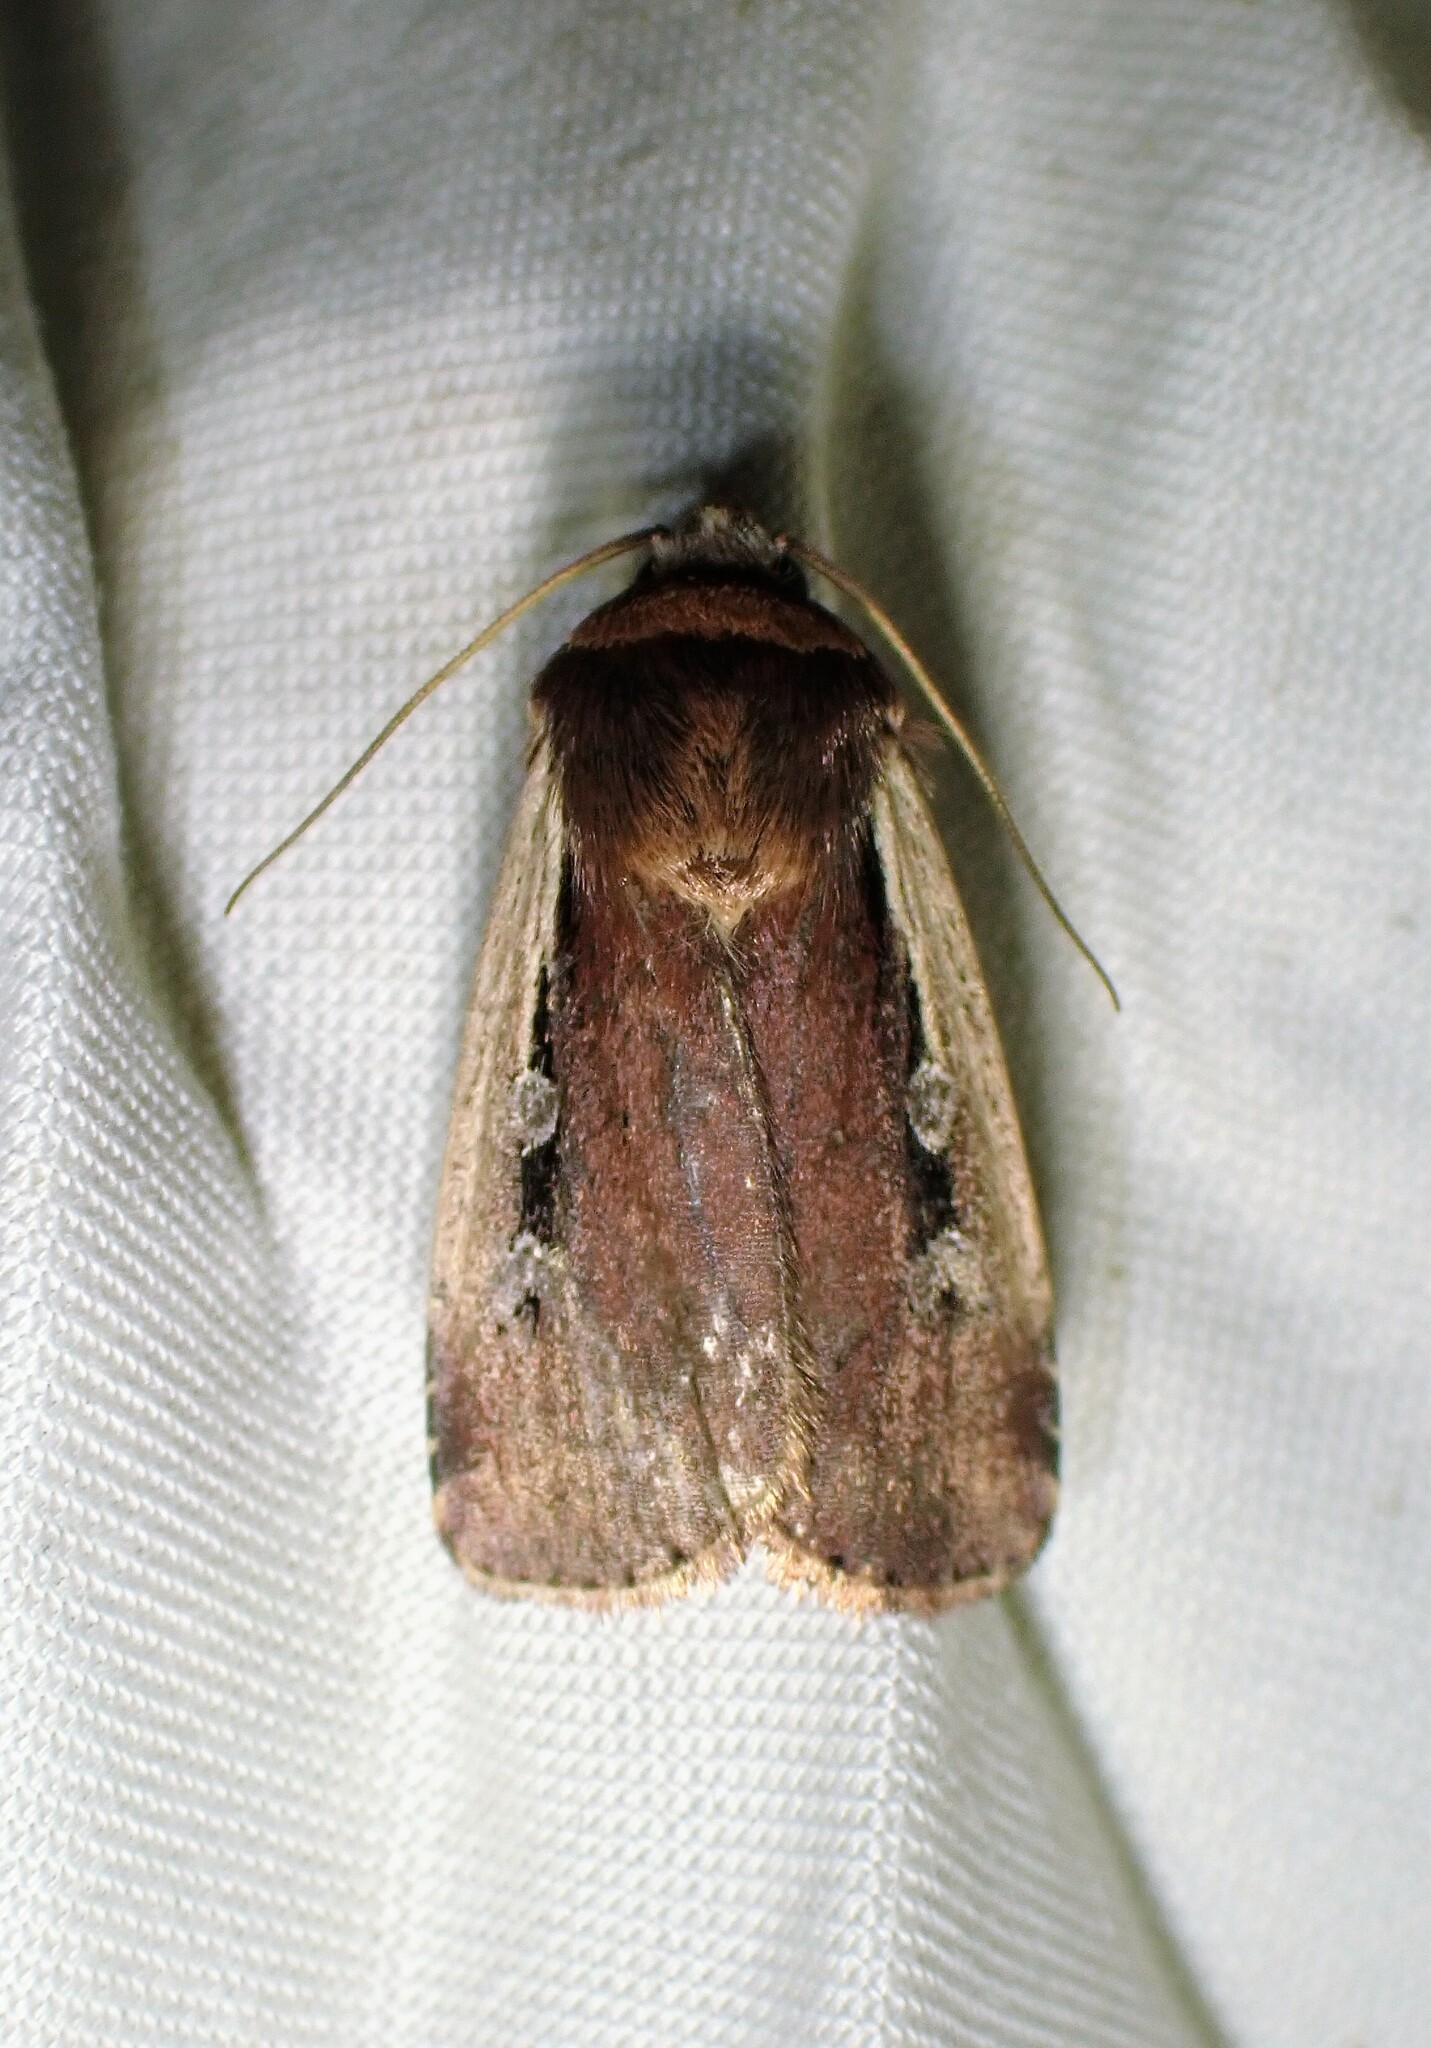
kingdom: Animalia
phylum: Arthropoda
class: Insecta
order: Lepidoptera
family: Noctuidae
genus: Ochropleura
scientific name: Ochropleura implecta
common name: Flame-shouldered dart
